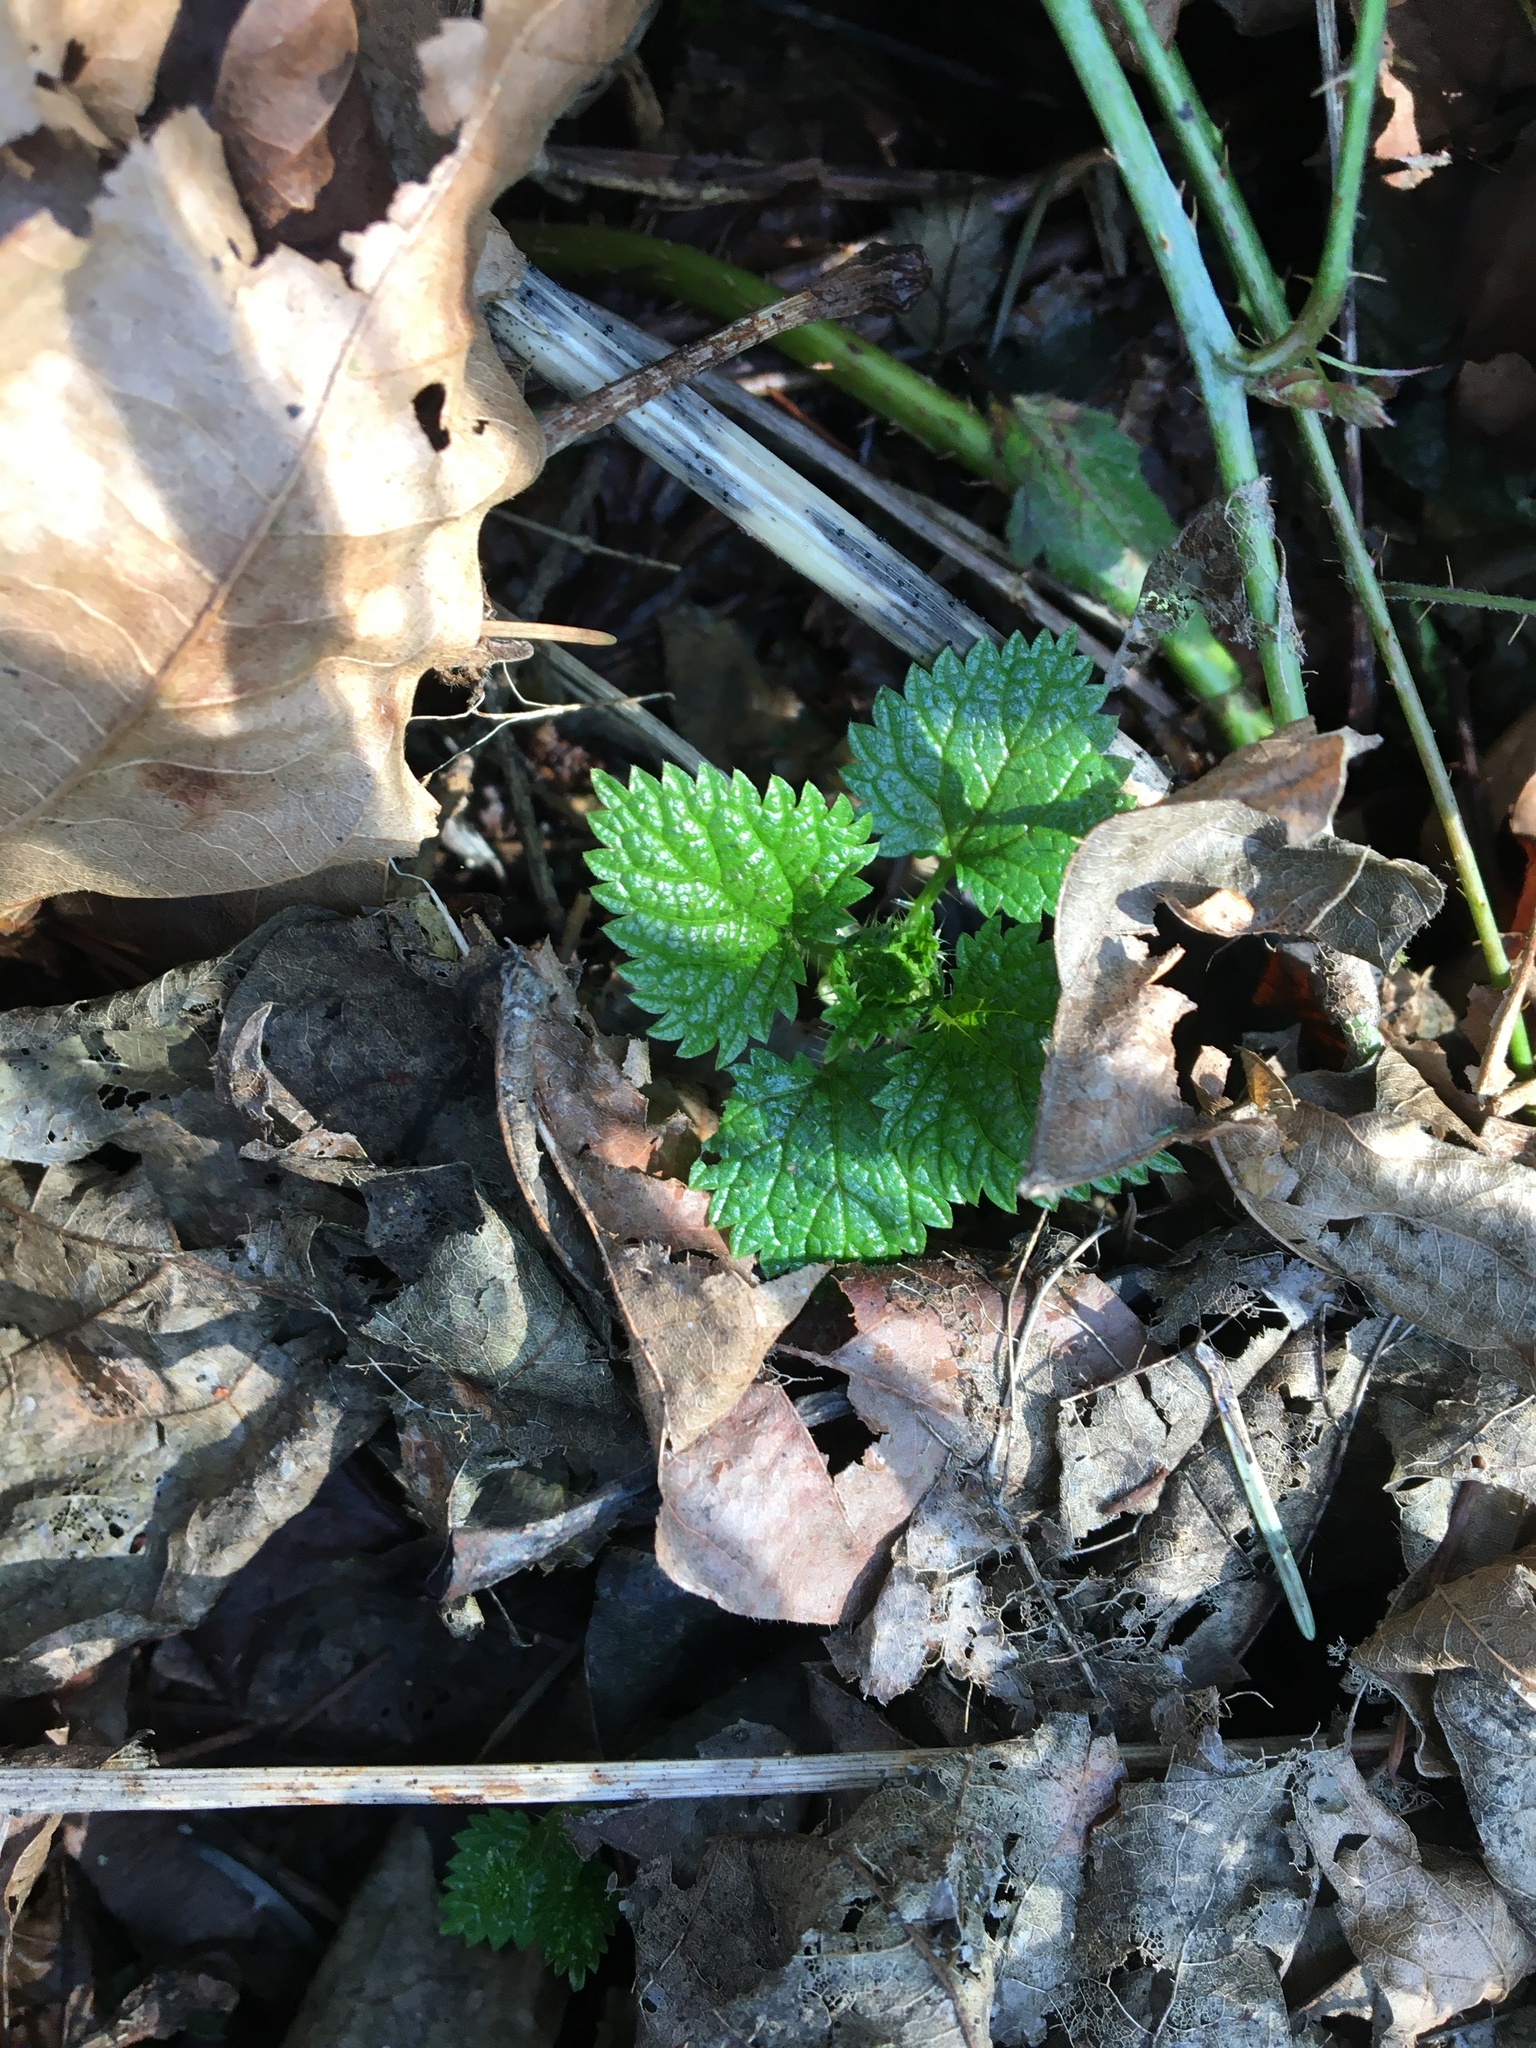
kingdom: Plantae
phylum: Tracheophyta
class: Magnoliopsida
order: Rosales
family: Urticaceae
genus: Urtica
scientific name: Urtica dioica
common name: Common nettle
